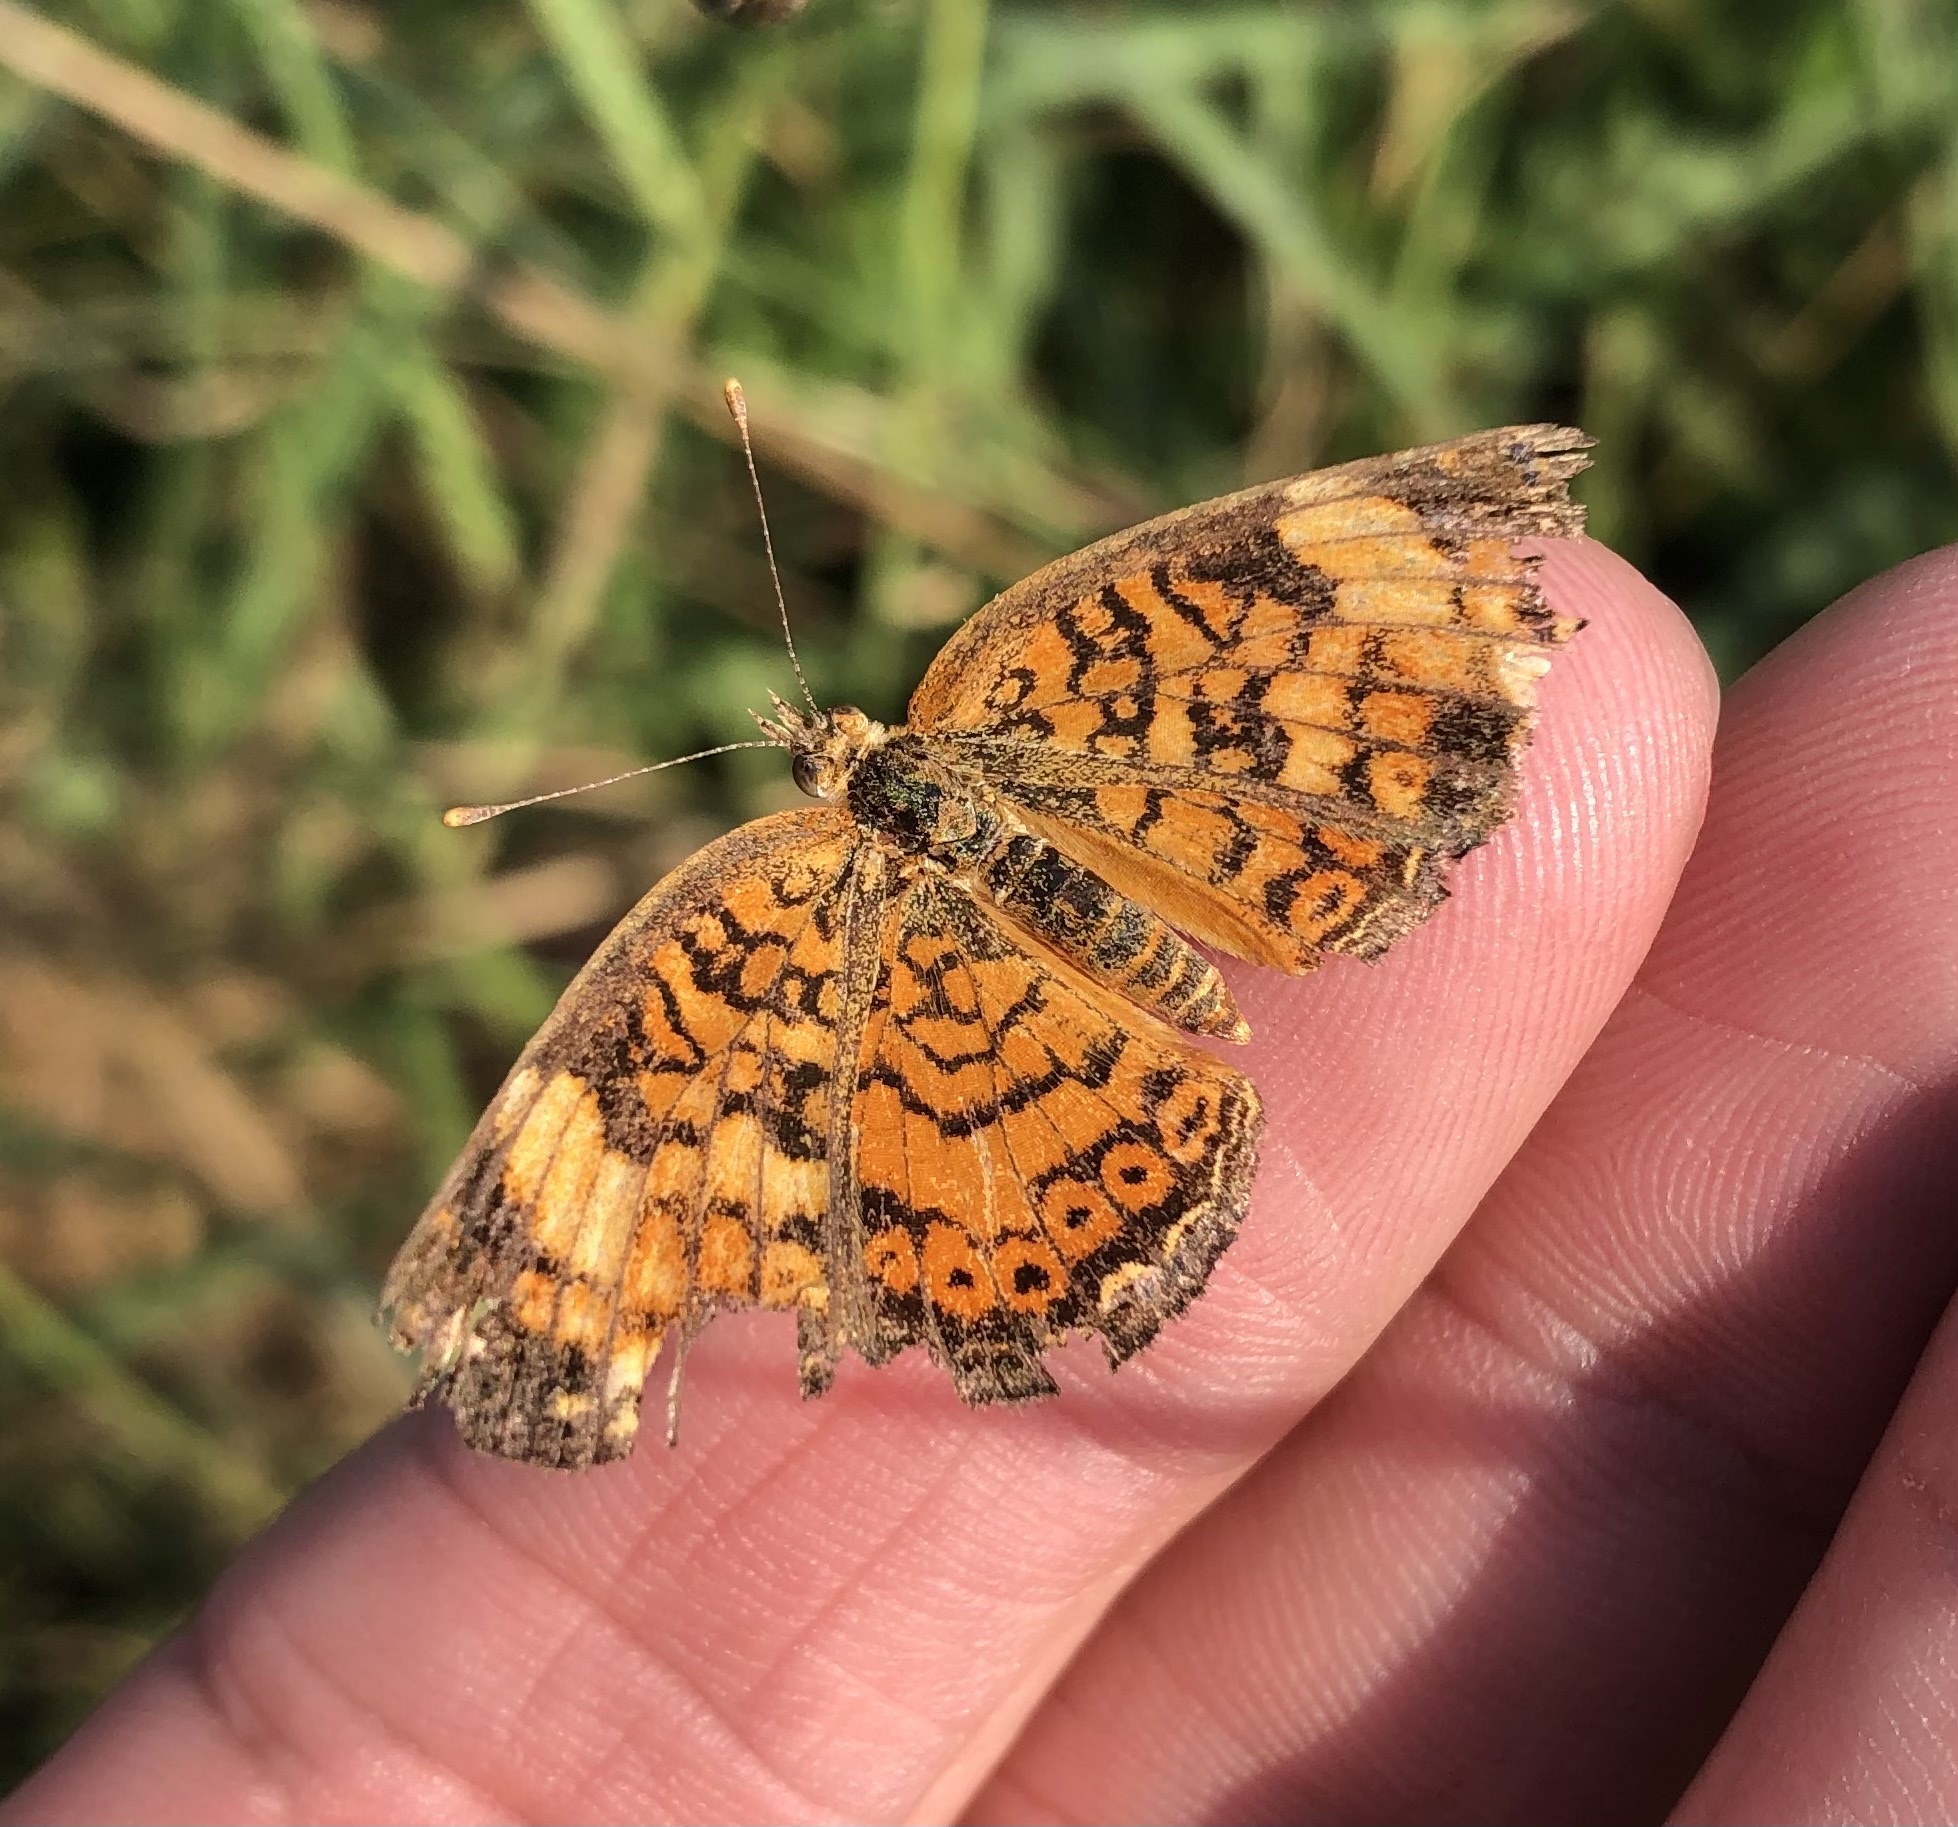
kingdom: Animalia
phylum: Arthropoda
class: Insecta
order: Lepidoptera
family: Nymphalidae
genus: Phyciodes
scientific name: Phyciodes tharos
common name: Pearl crescent
